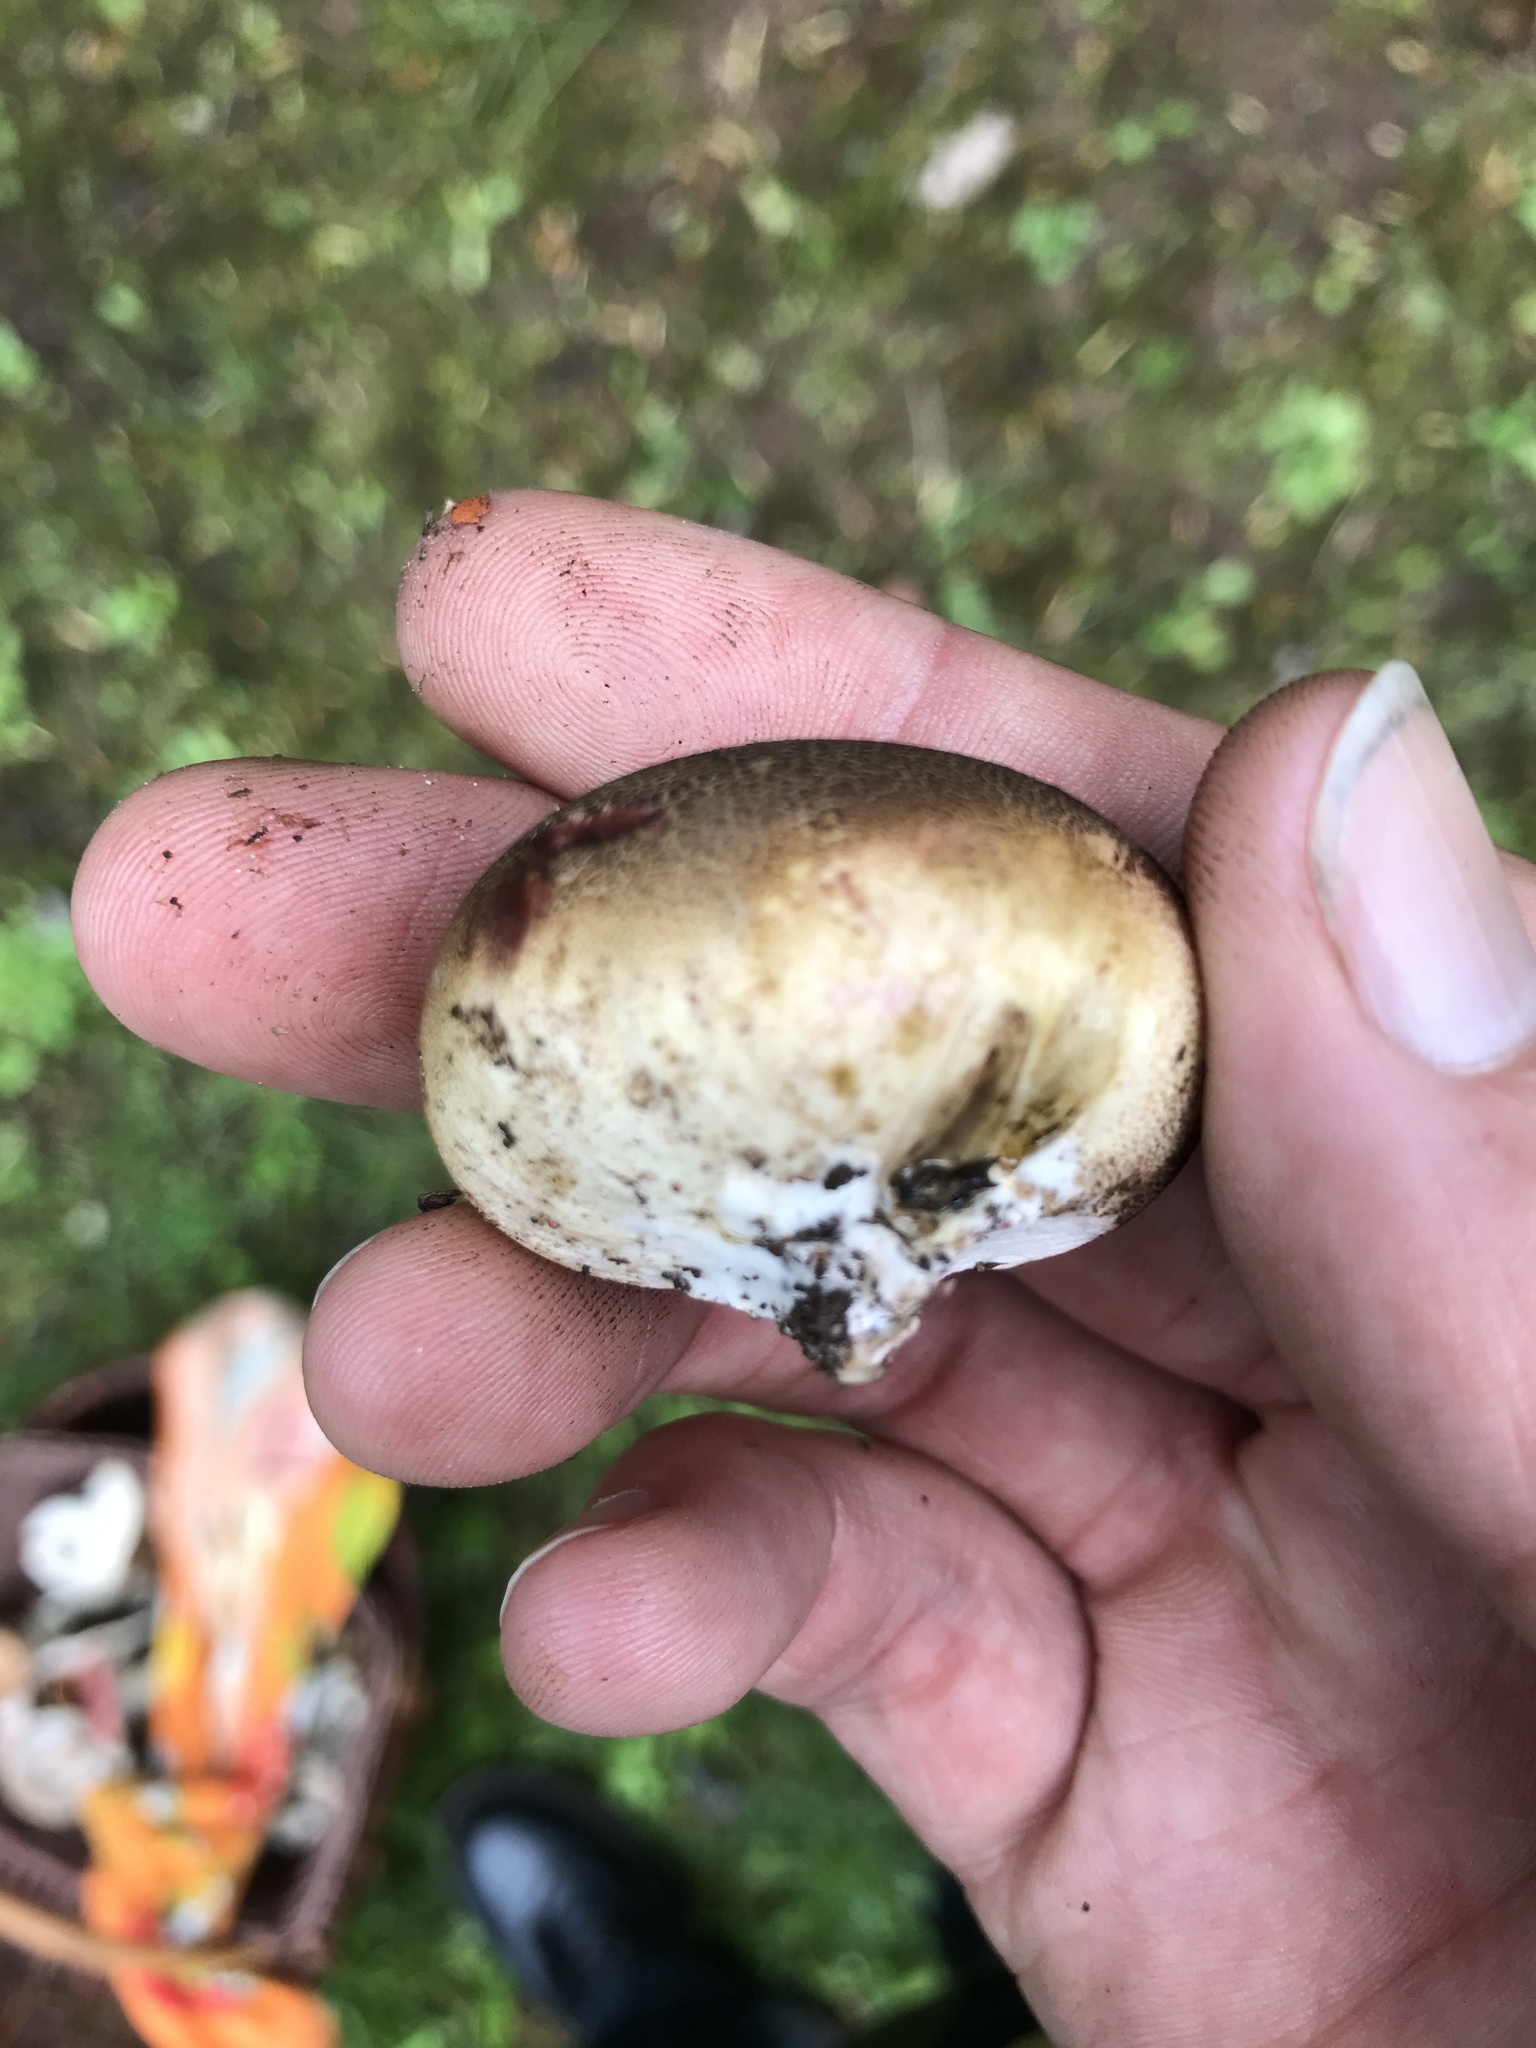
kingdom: Fungi
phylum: Basidiomycota
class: Agaricomycetes
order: Boletales
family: Sclerodermataceae
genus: Scleroderma
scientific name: Scleroderma citrinum
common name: Common earthball
